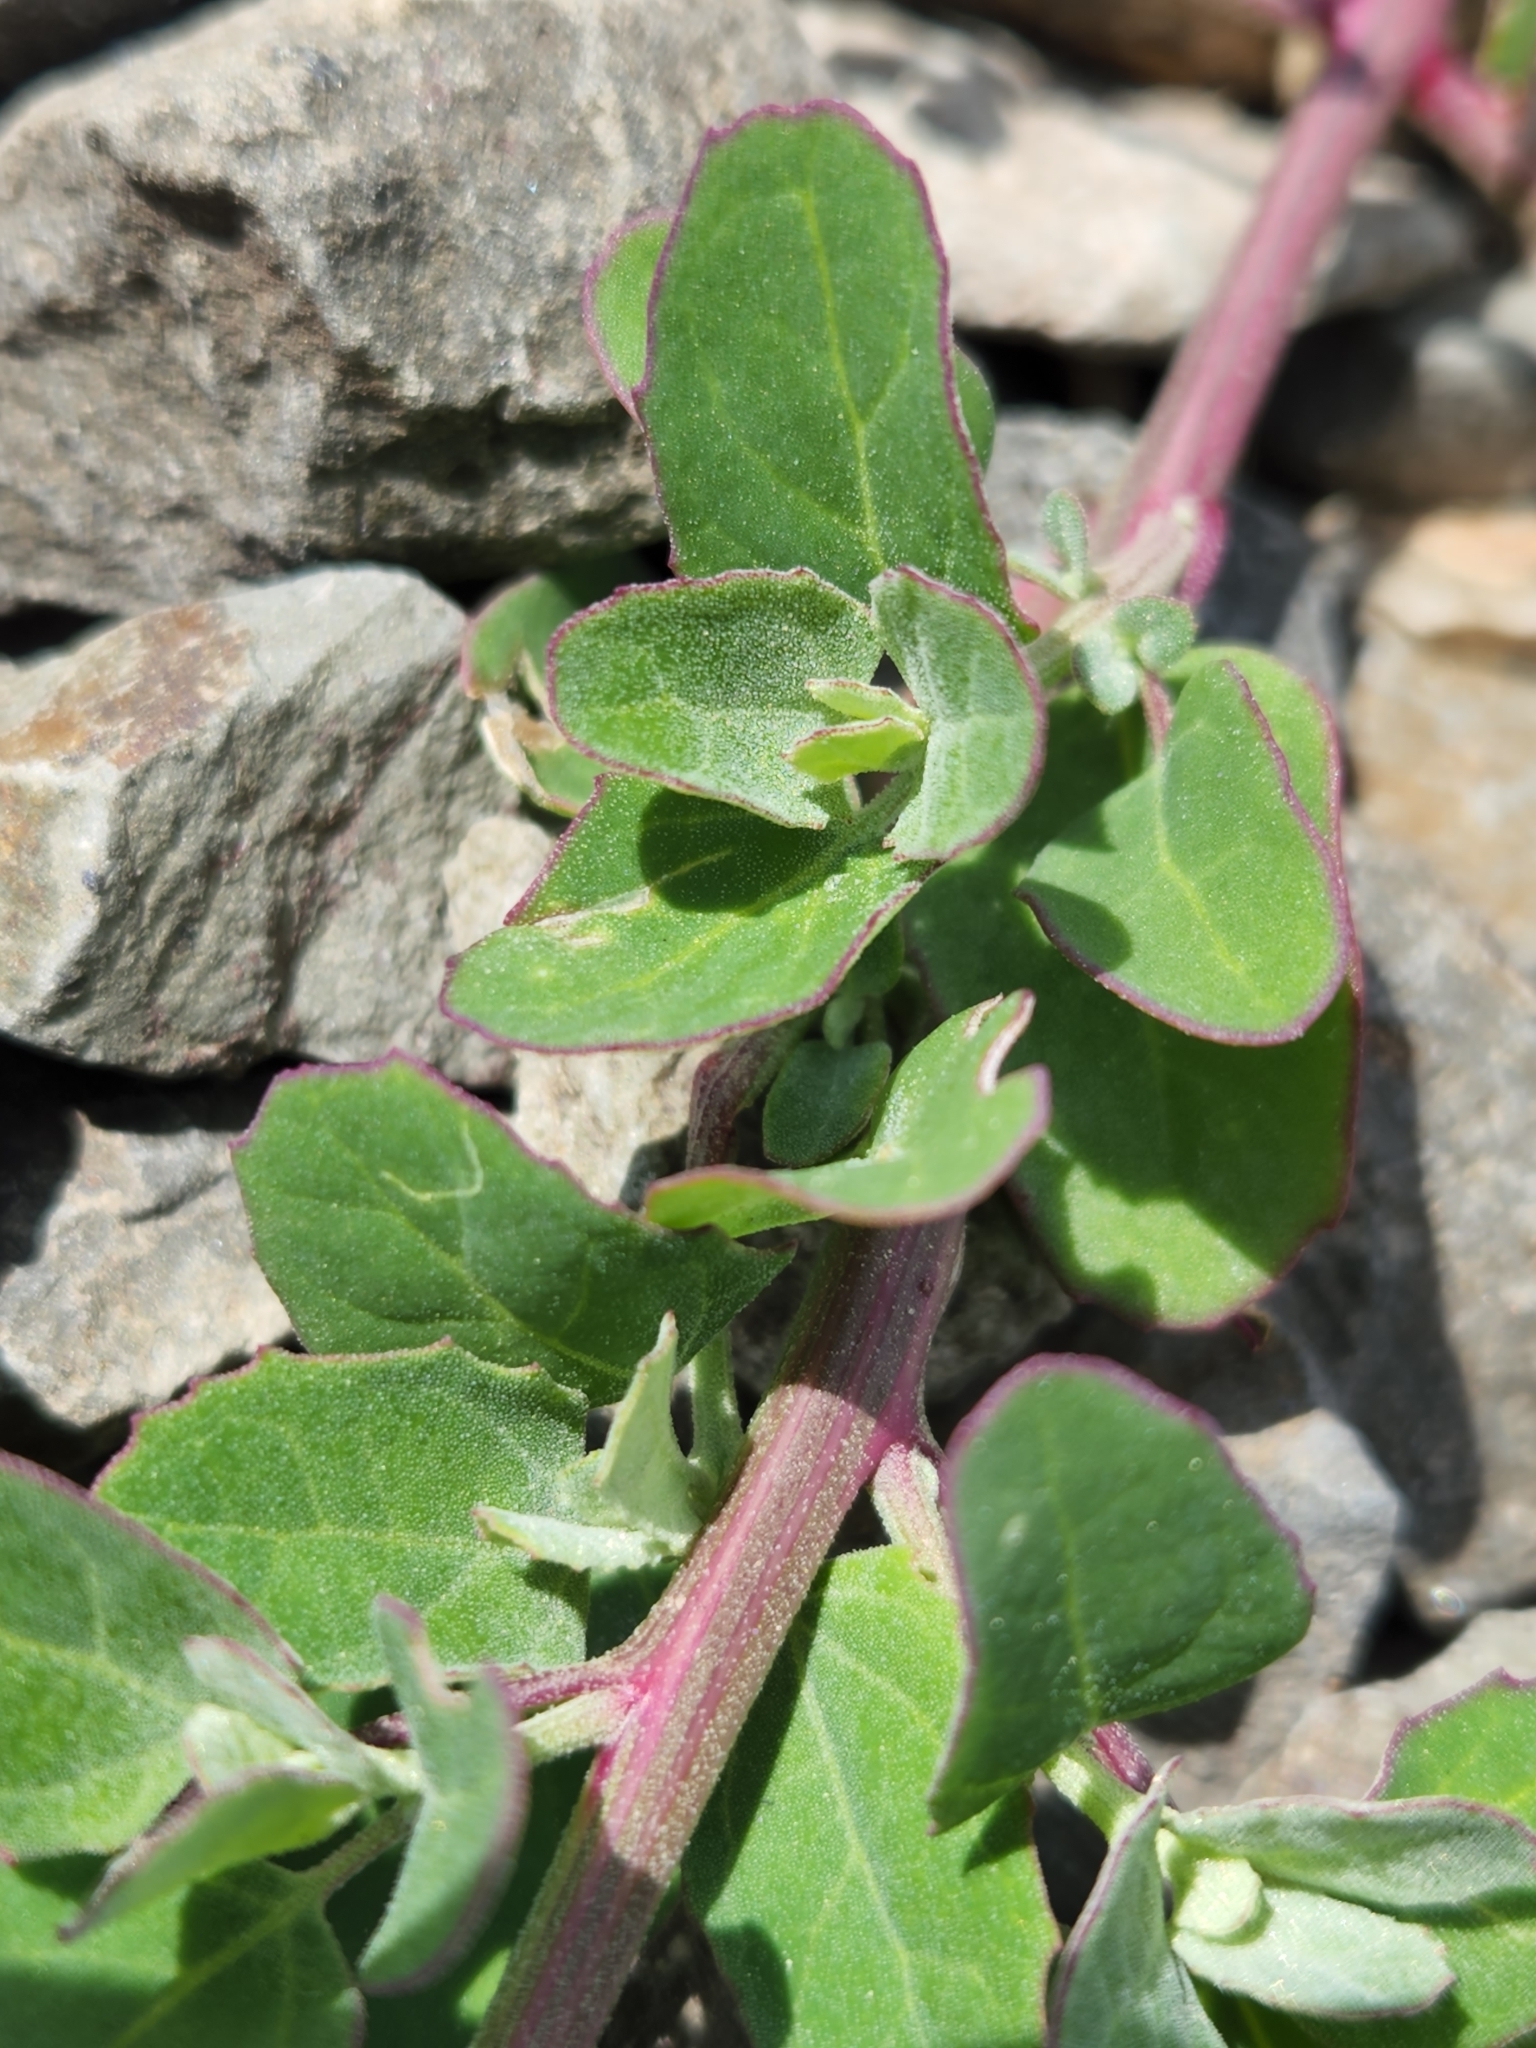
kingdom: Plantae
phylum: Tracheophyta
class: Magnoliopsida
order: Caryophyllales
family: Amaranthaceae
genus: Chenopodium
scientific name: Chenopodium album
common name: Fat-hen
